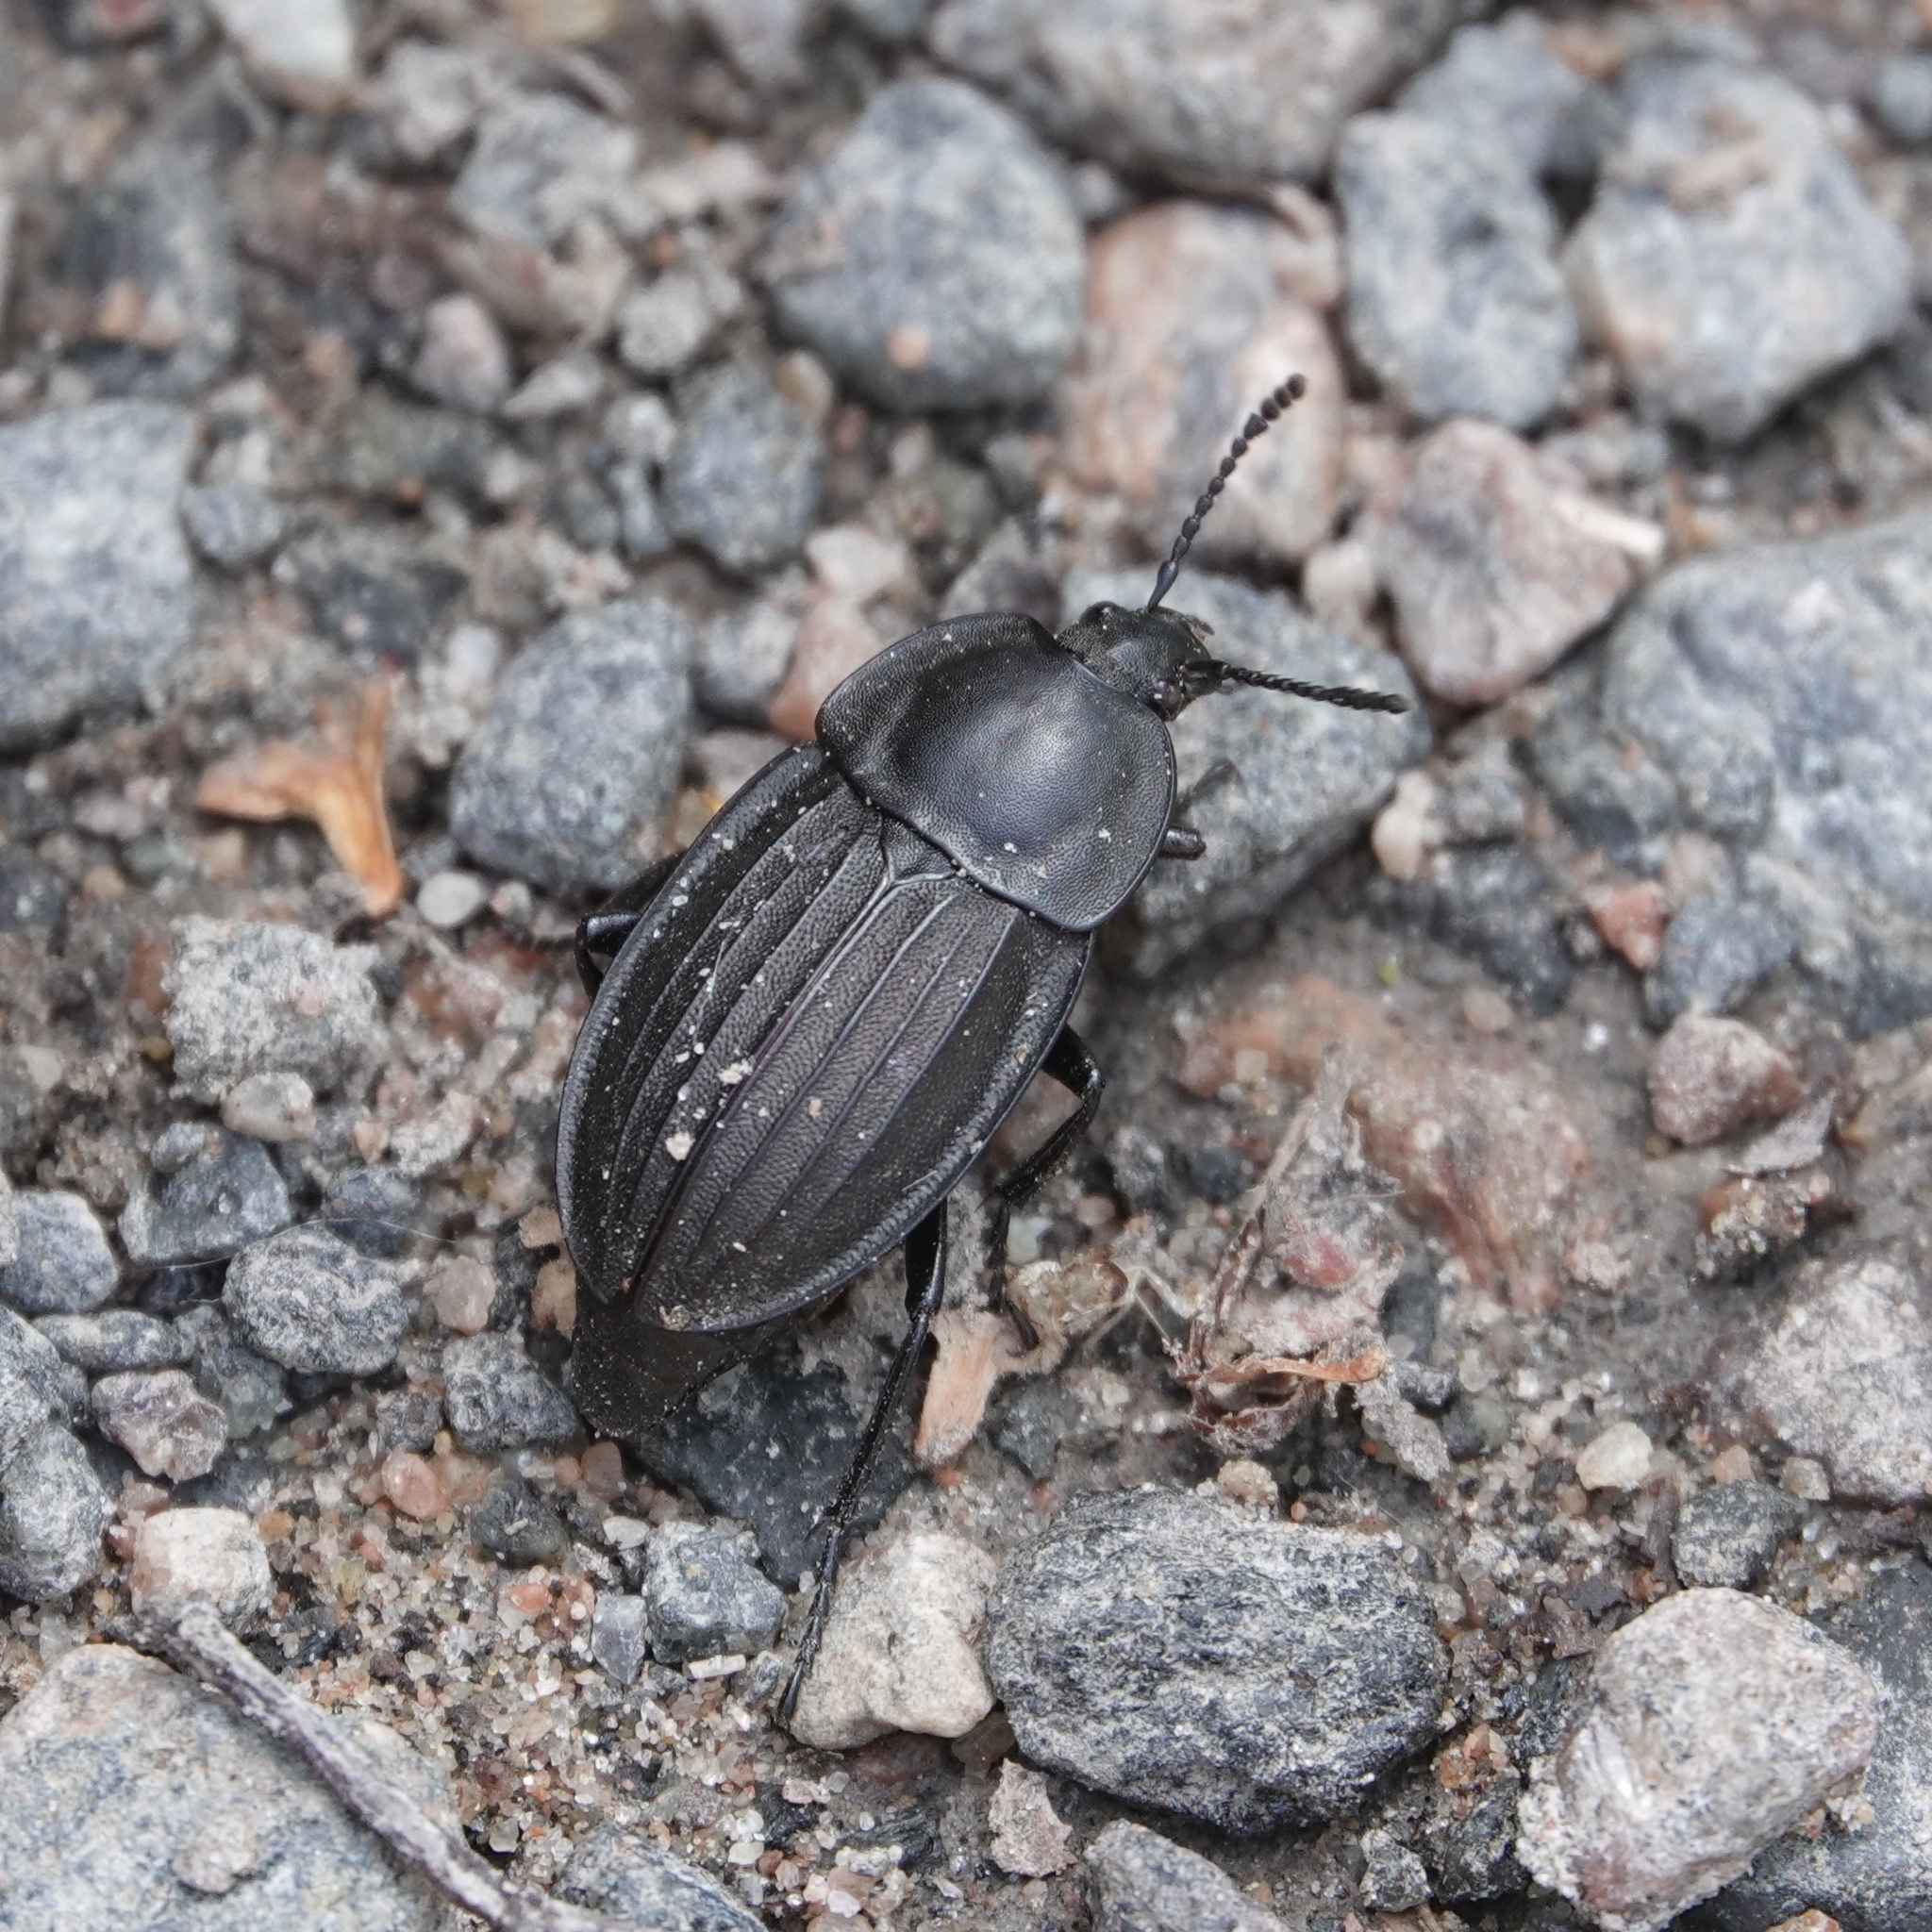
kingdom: Animalia
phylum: Arthropoda
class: Insecta
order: Coleoptera
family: Staphylinidae
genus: Silpha
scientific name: Silpha carinata
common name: Silphid beetle
